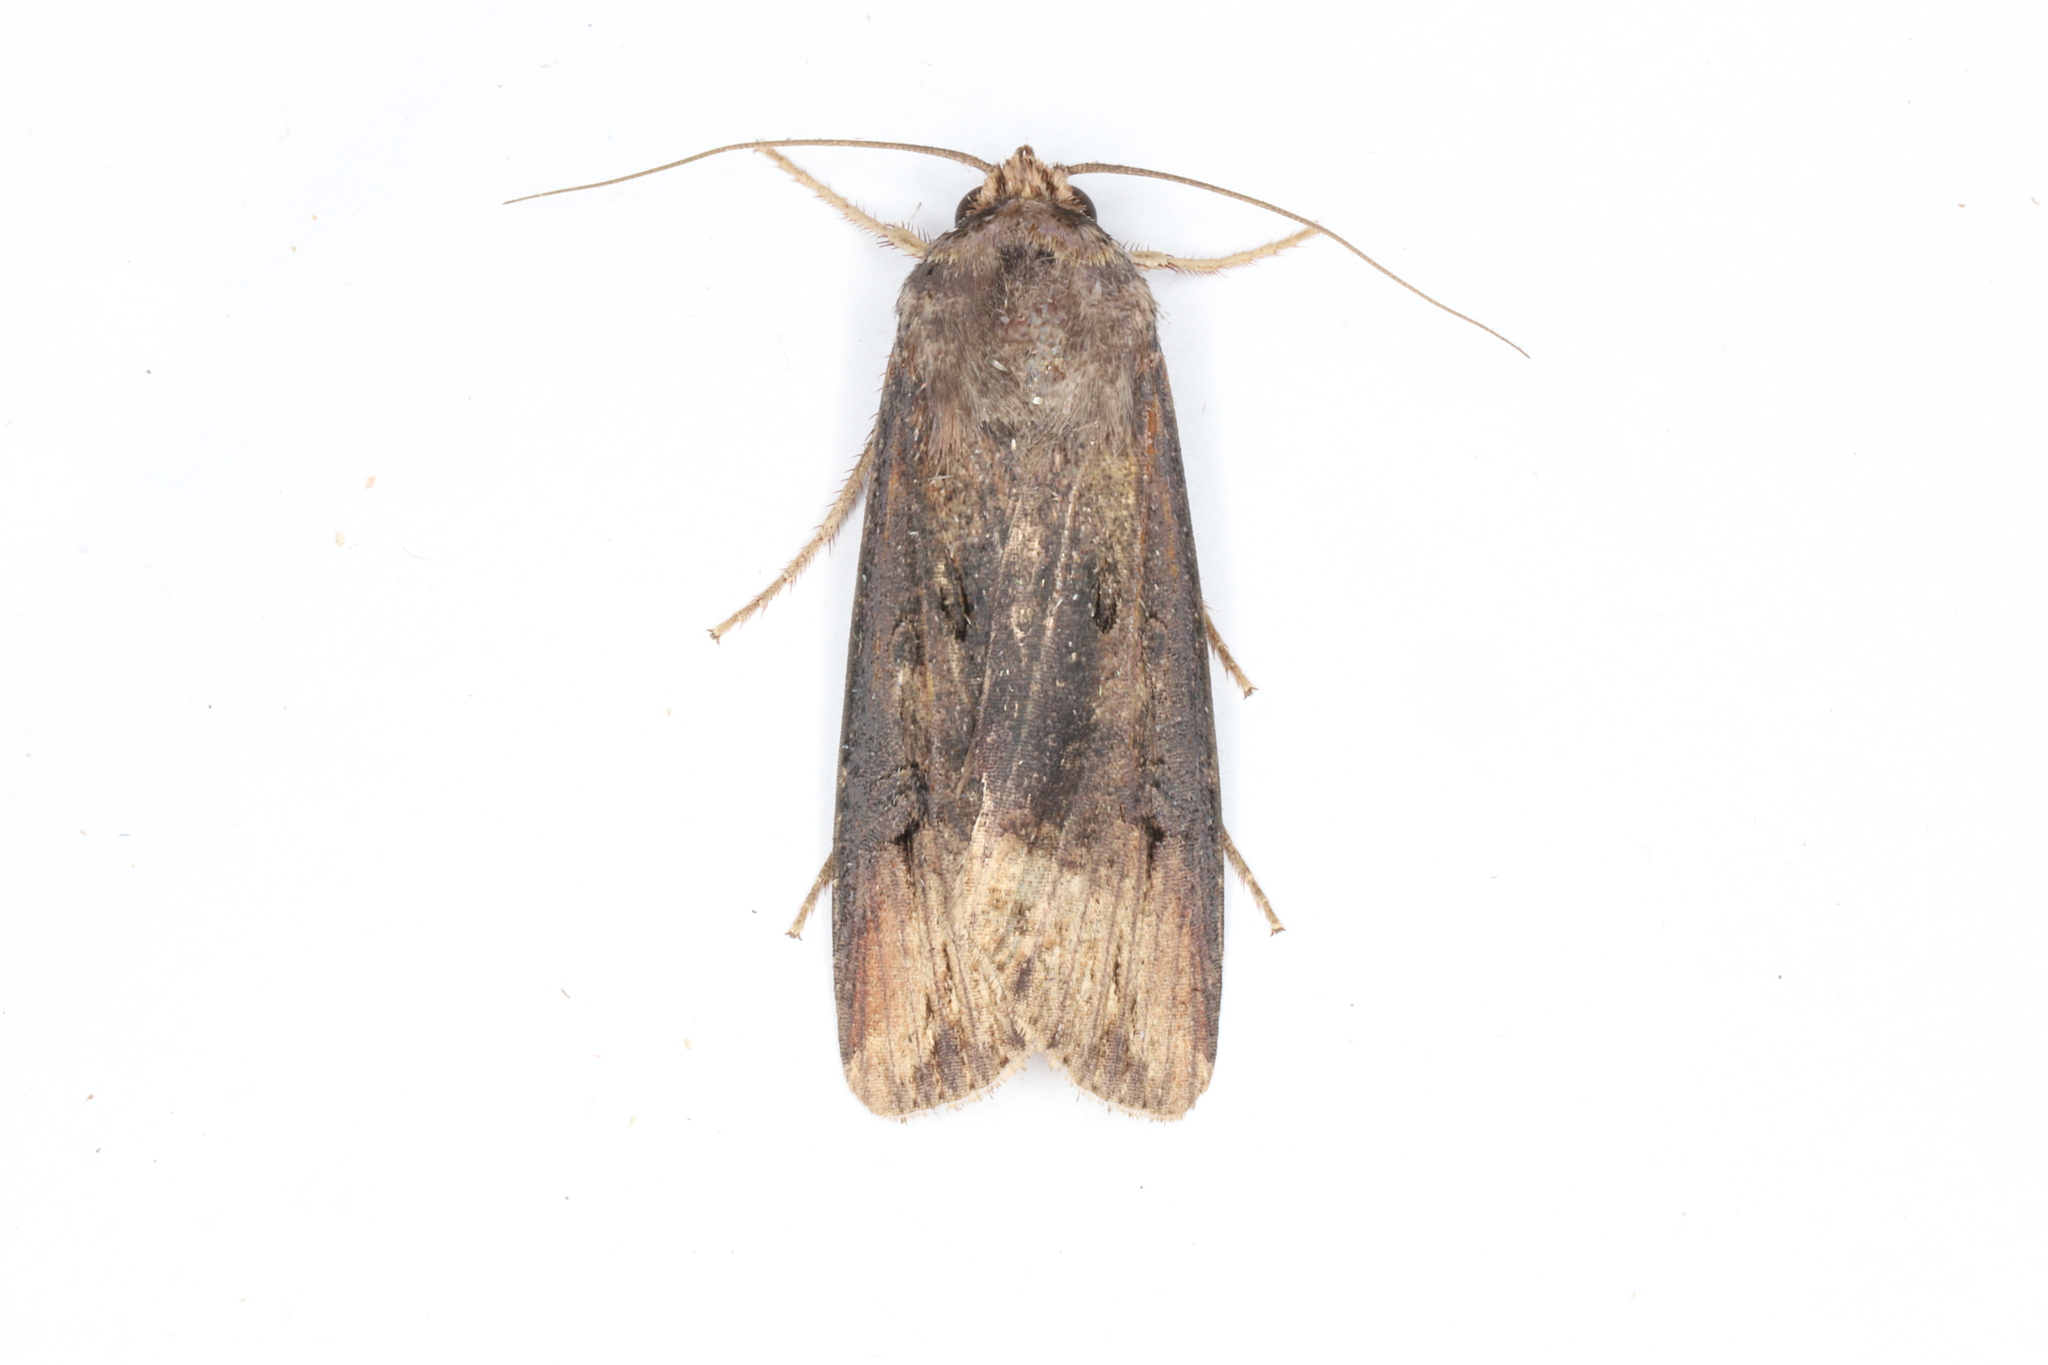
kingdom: Animalia
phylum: Arthropoda
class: Insecta
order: Lepidoptera
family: Noctuidae
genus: Agrotis
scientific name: Agrotis ipsilon
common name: Dark sword-grass
